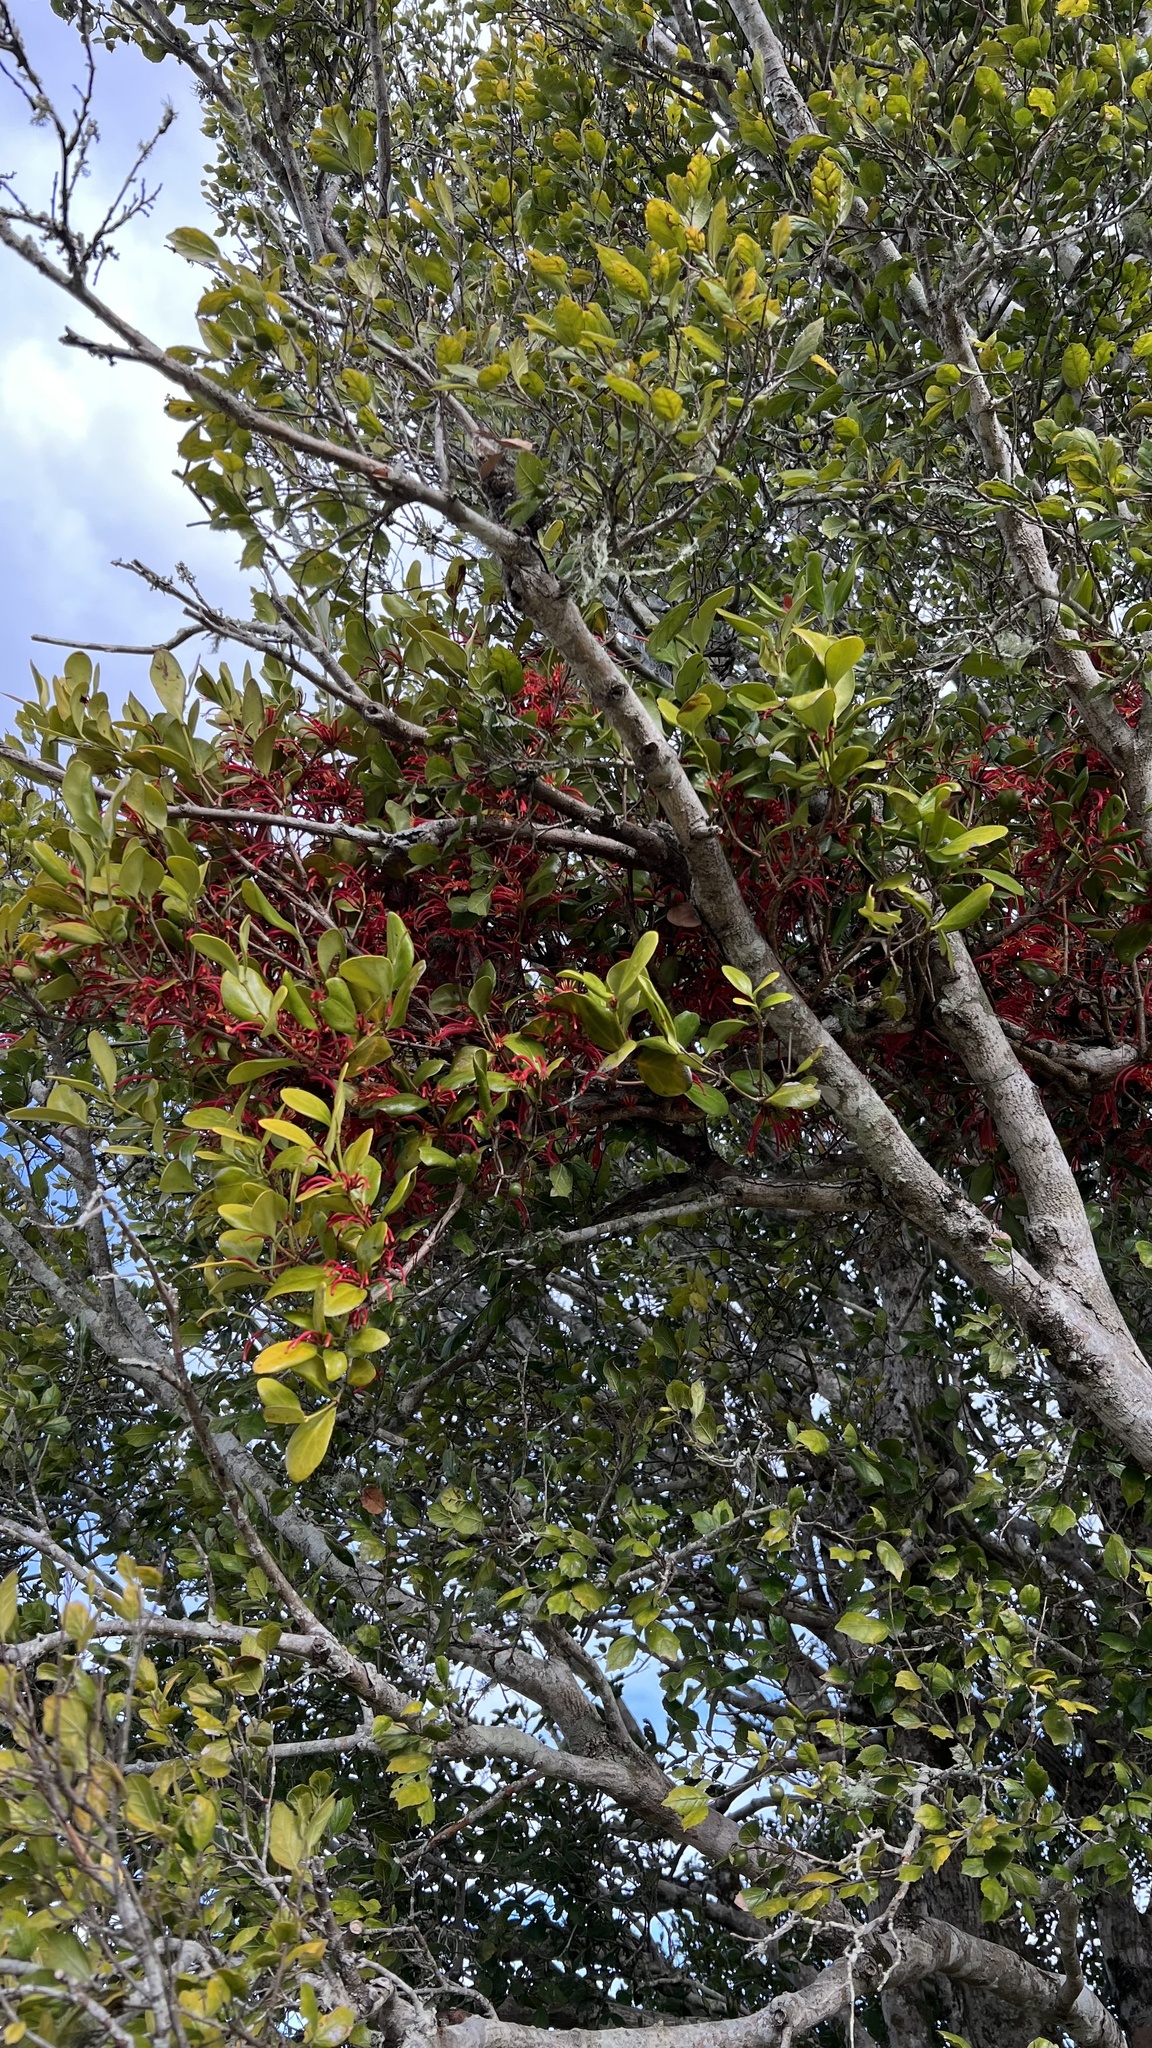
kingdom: Plantae
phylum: Tracheophyta
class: Magnoliopsida
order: Santalales
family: Loranthaceae
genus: Amylotheca
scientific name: Amylotheca dictyophleba
